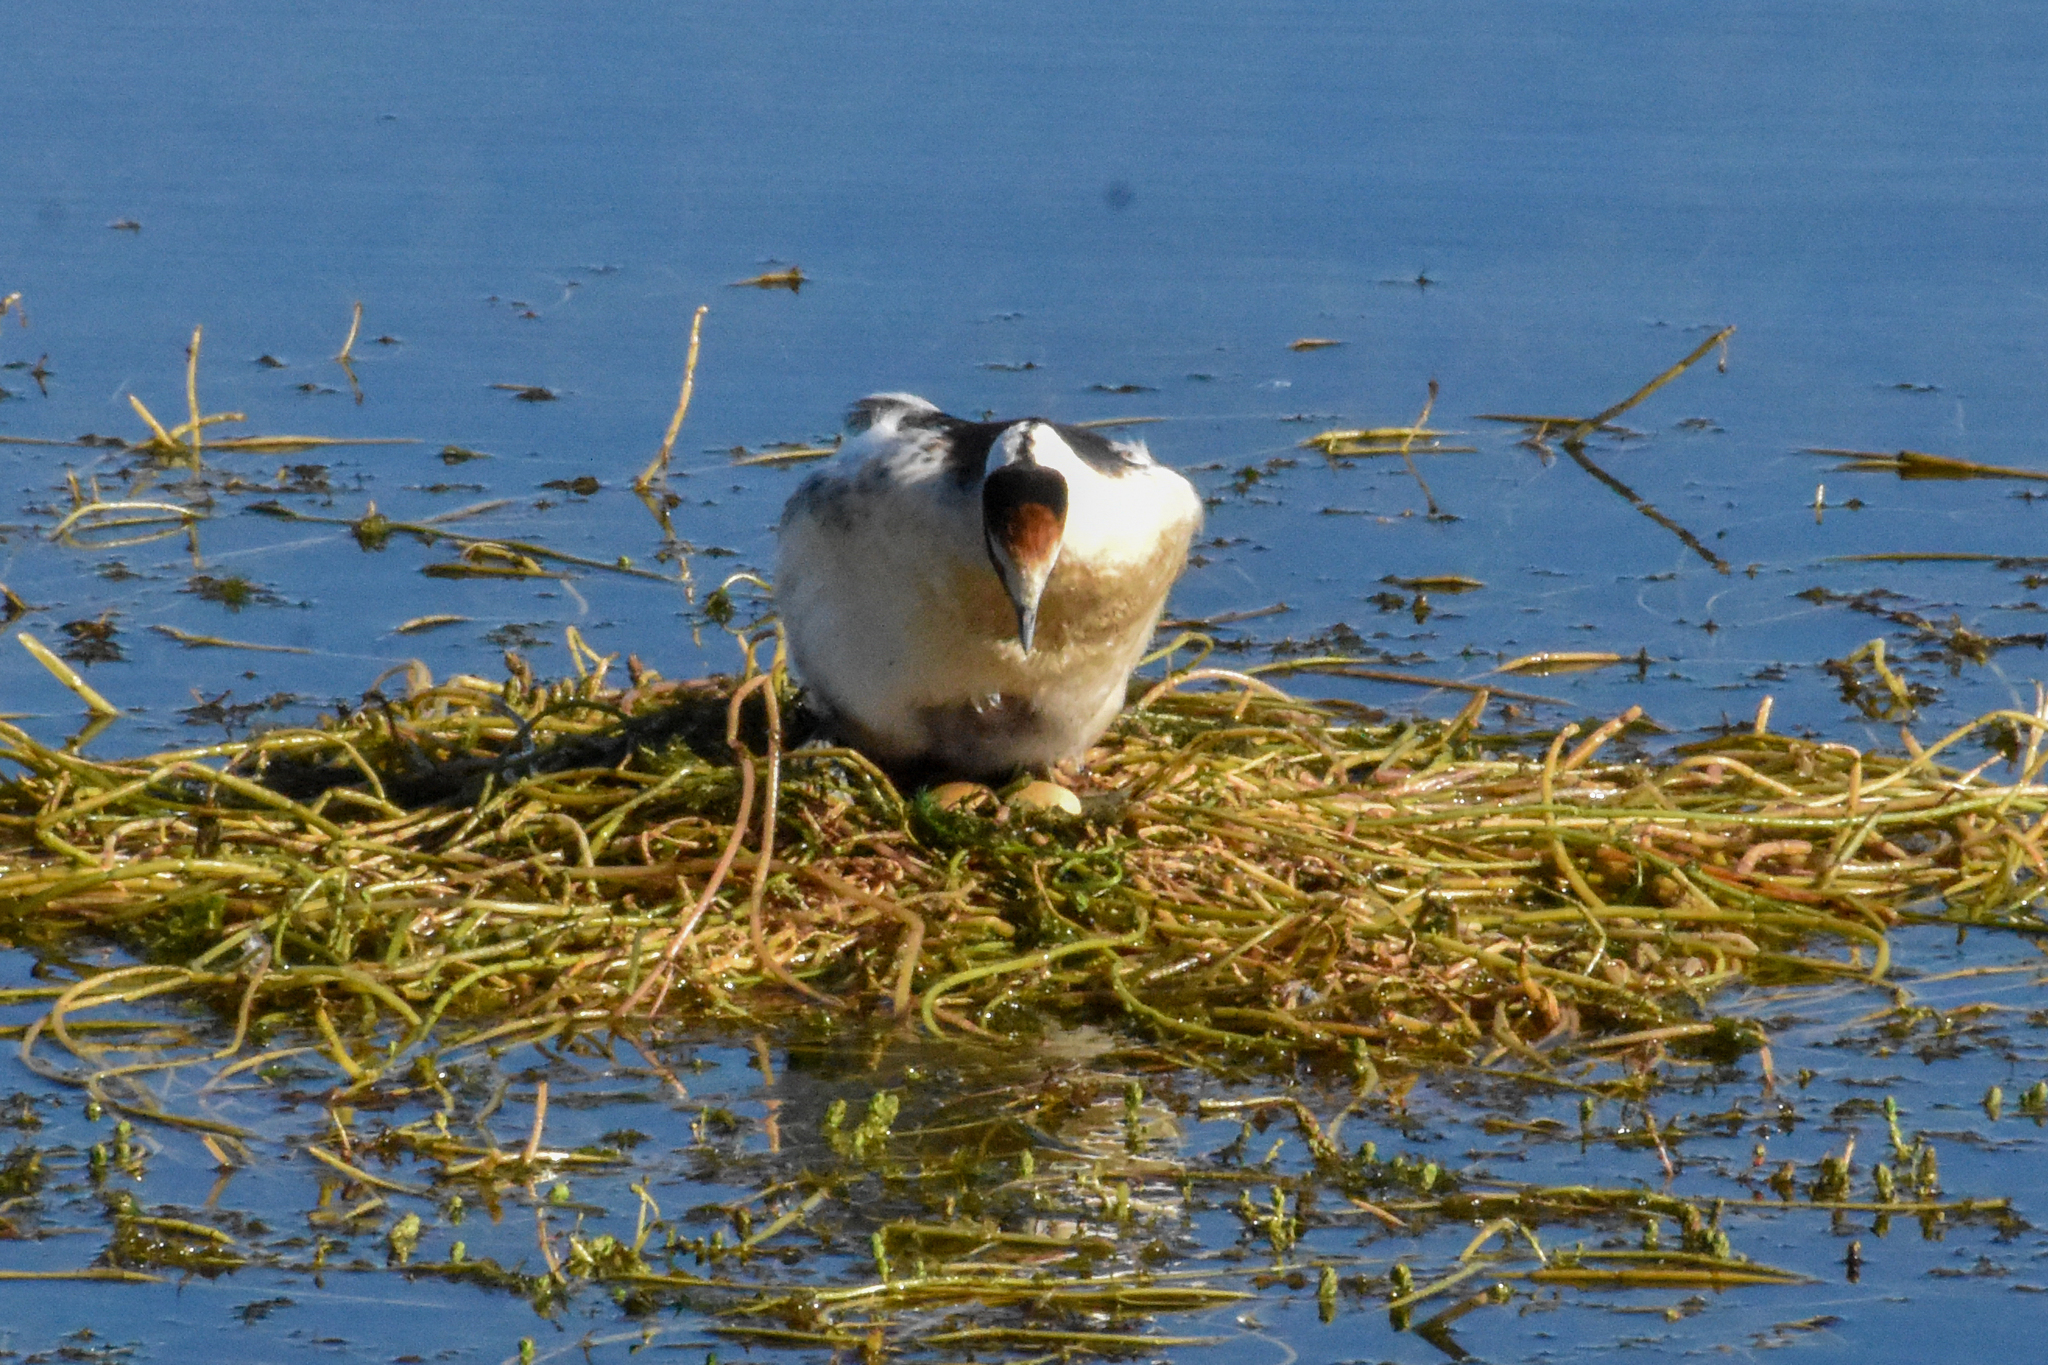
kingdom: Animalia
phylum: Chordata
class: Aves
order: Podicipediformes
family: Podicipedidae
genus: Podiceps
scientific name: Podiceps gallardoi
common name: Hooded grebe
